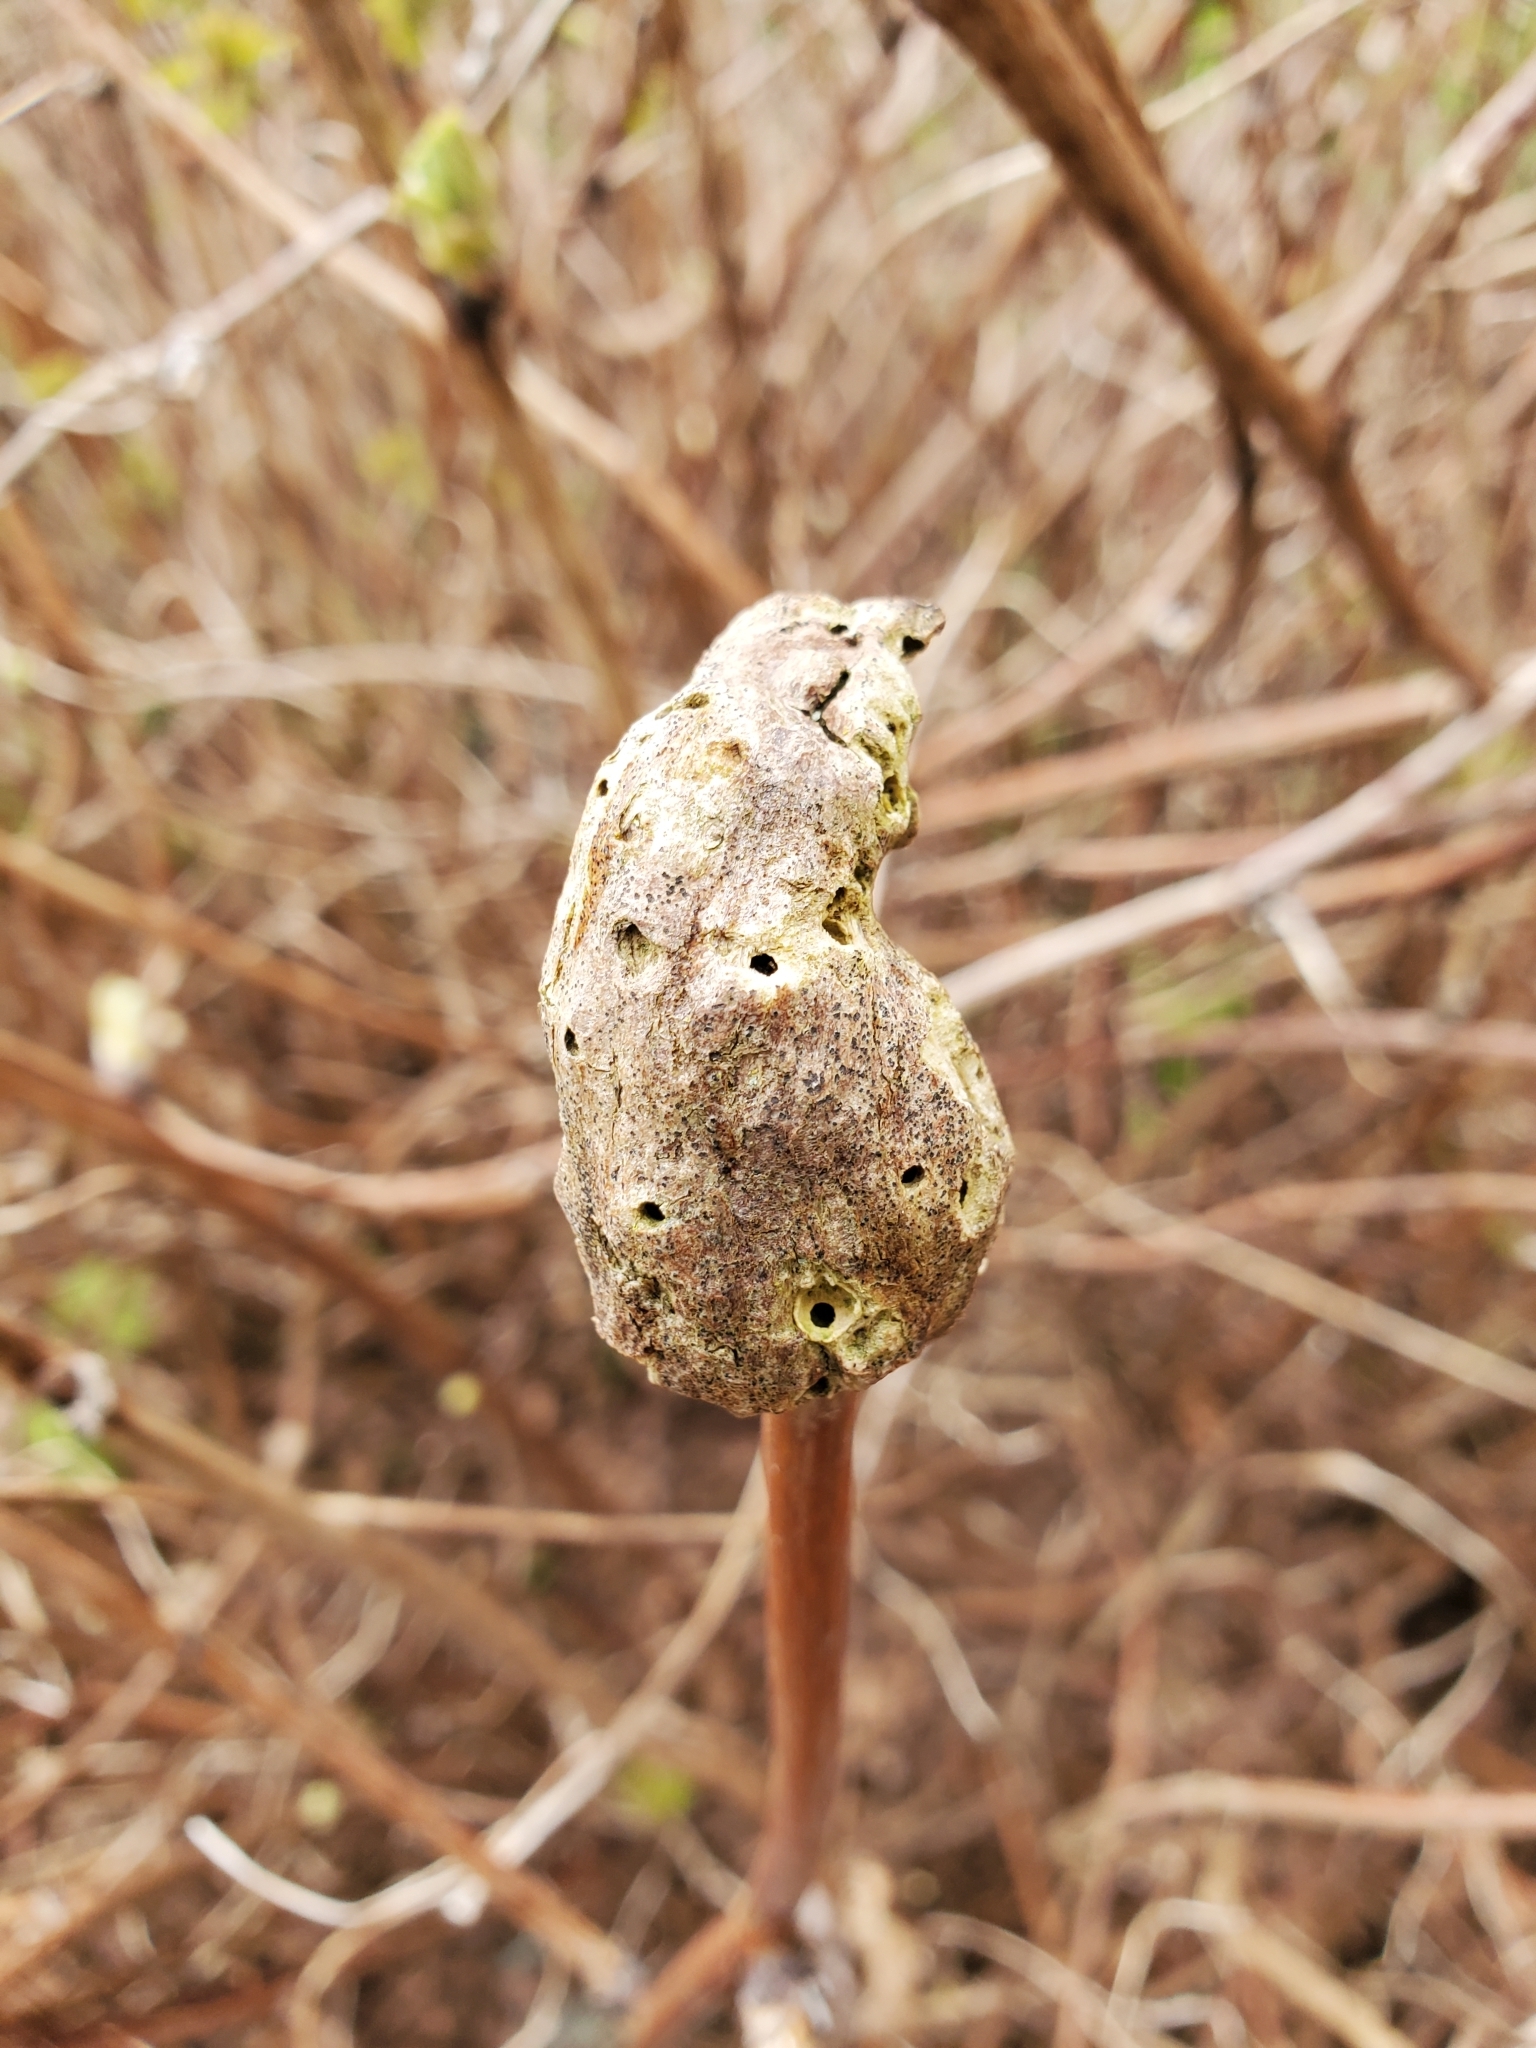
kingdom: Animalia
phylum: Arthropoda
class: Insecta
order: Hymenoptera
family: Cynipidae
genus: Diastrophus
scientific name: Diastrophus
